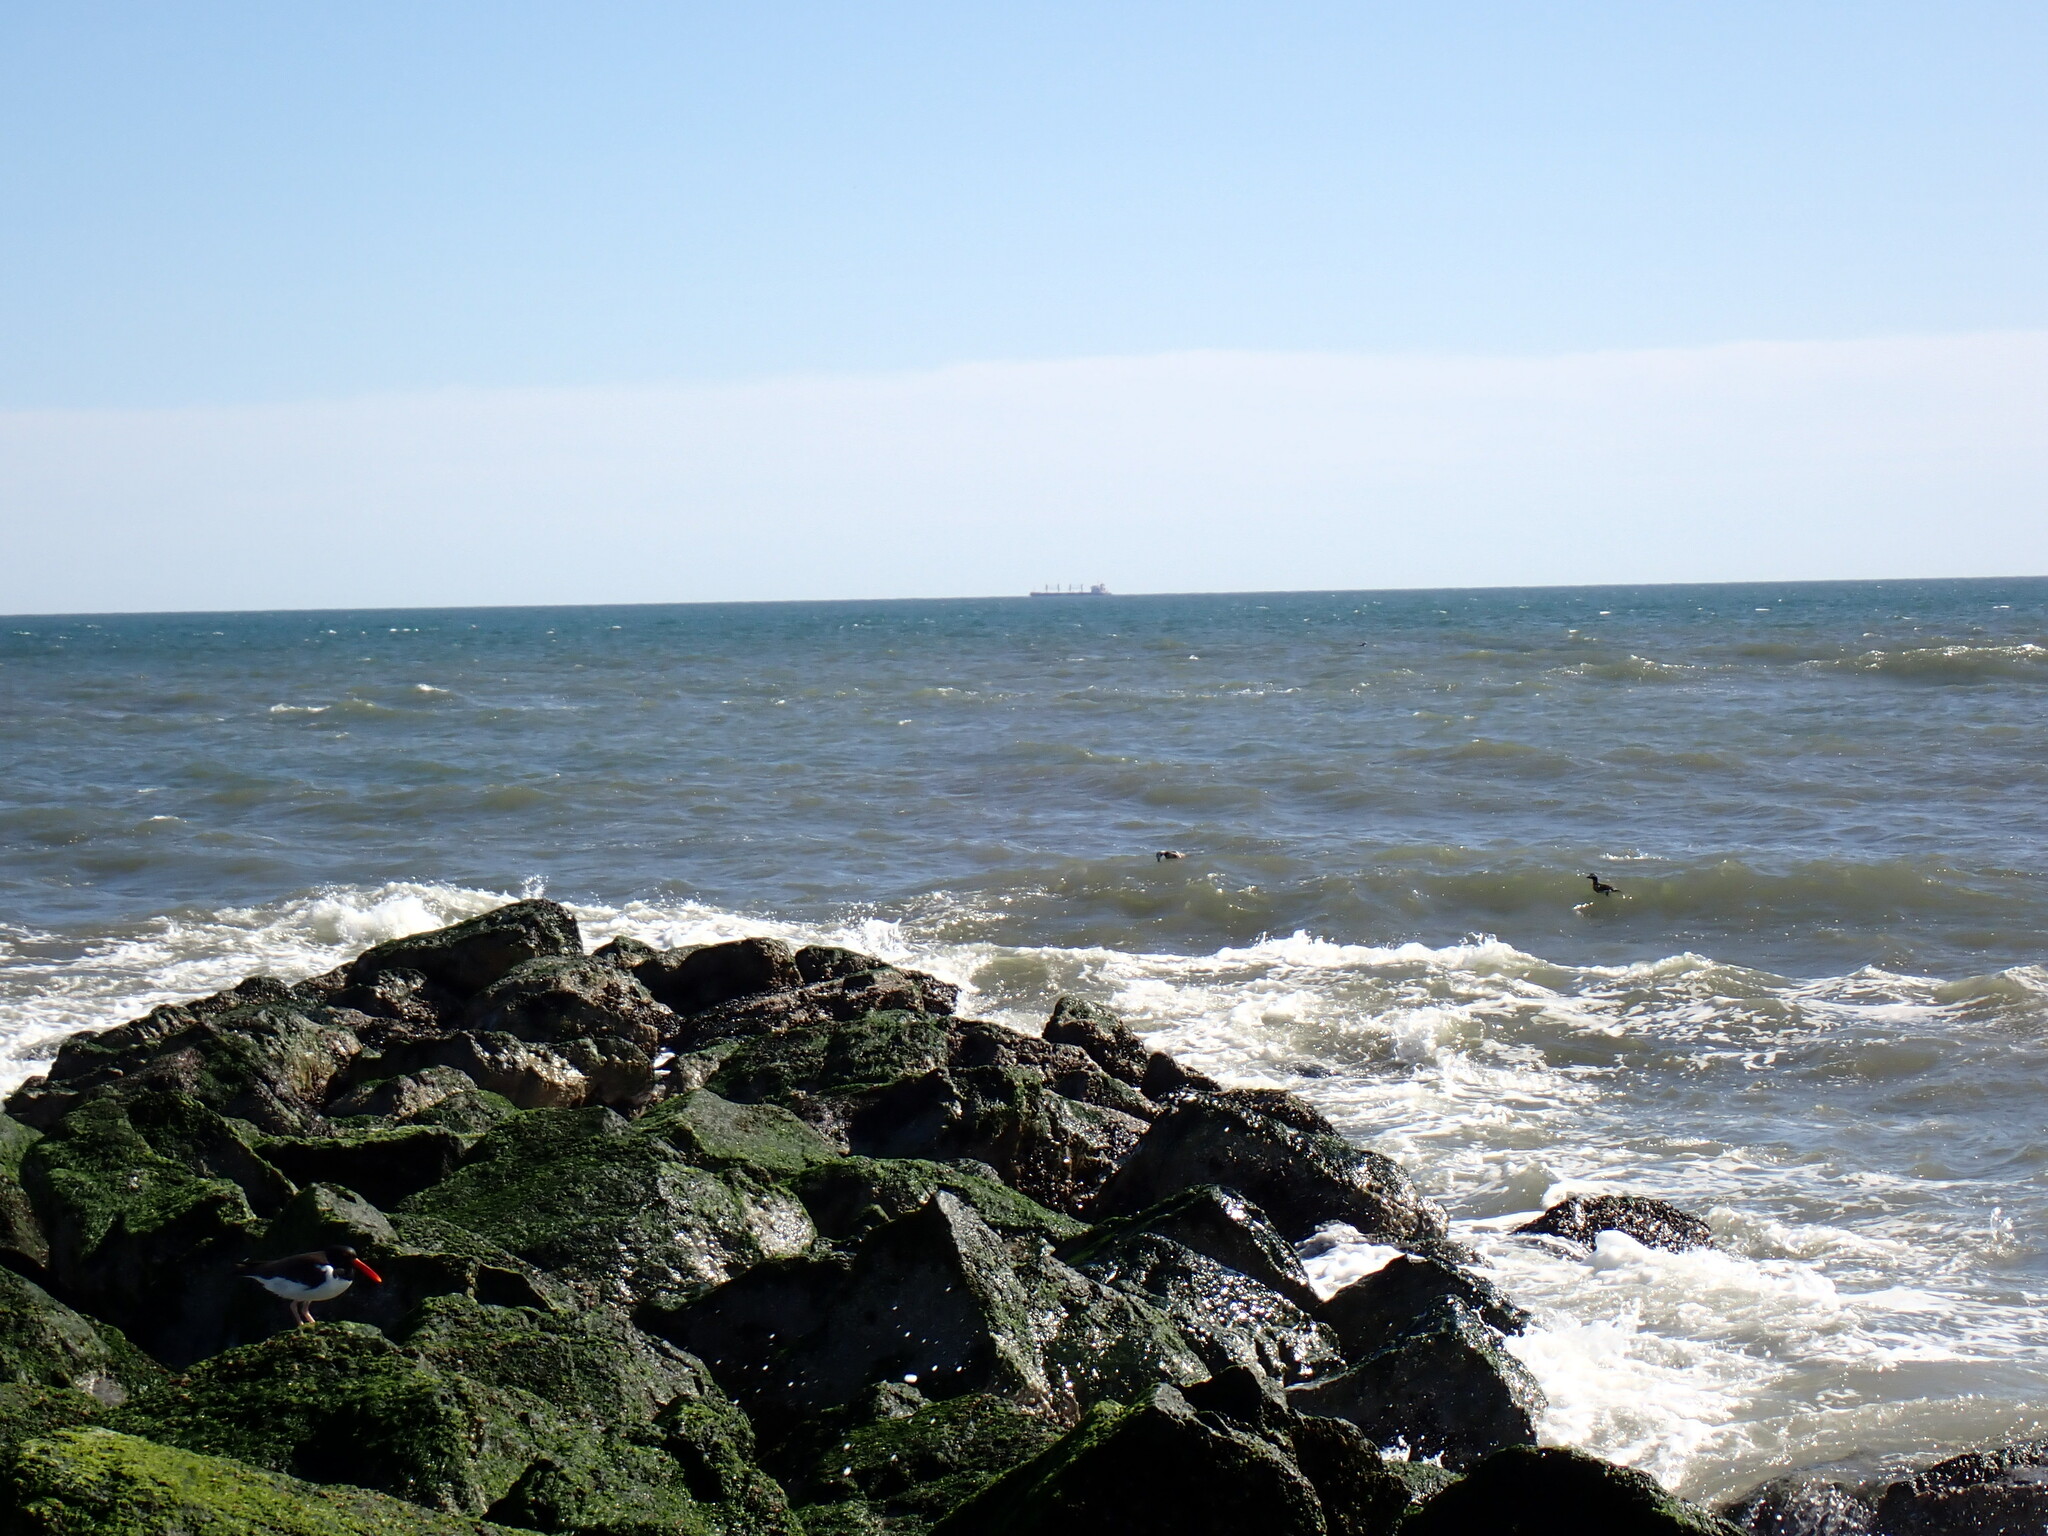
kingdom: Animalia
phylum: Chordata
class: Aves
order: Anseriformes
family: Anatidae
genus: Clangula
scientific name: Clangula hyemalis
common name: Long-tailed duck
